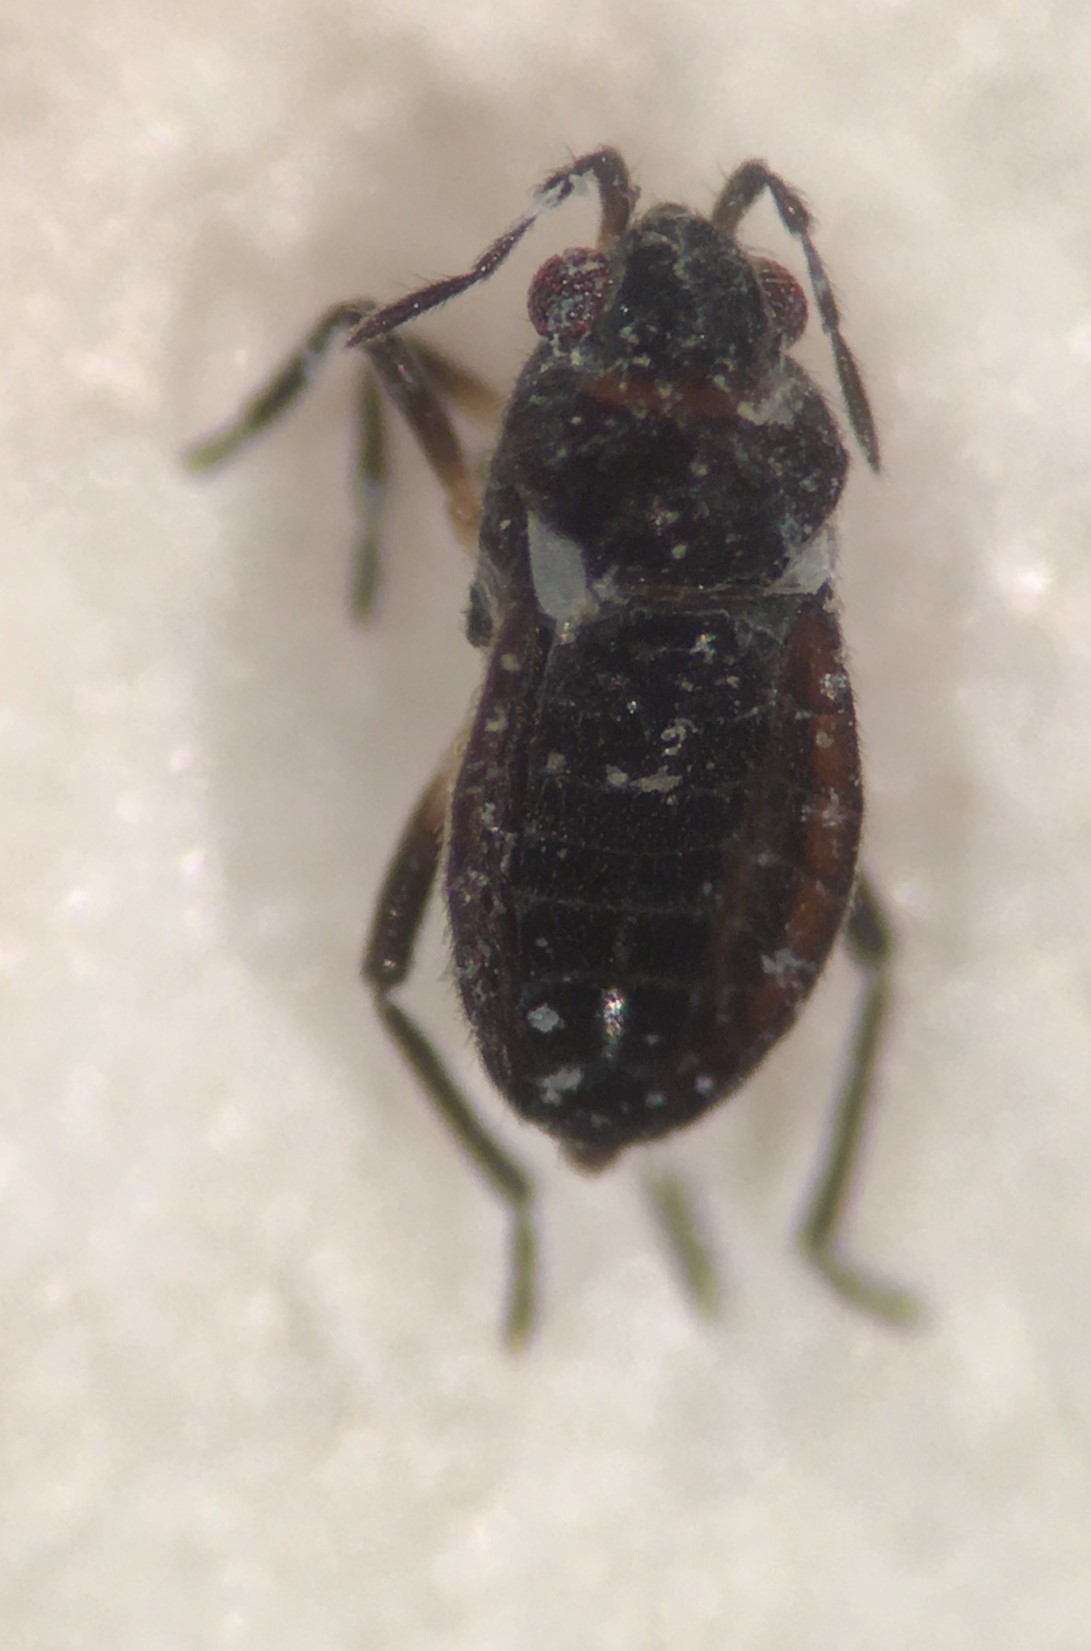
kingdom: Animalia
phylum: Arthropoda
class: Insecta
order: Hemiptera
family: Veliidae
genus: Microvelia
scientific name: Microvelia atrata
